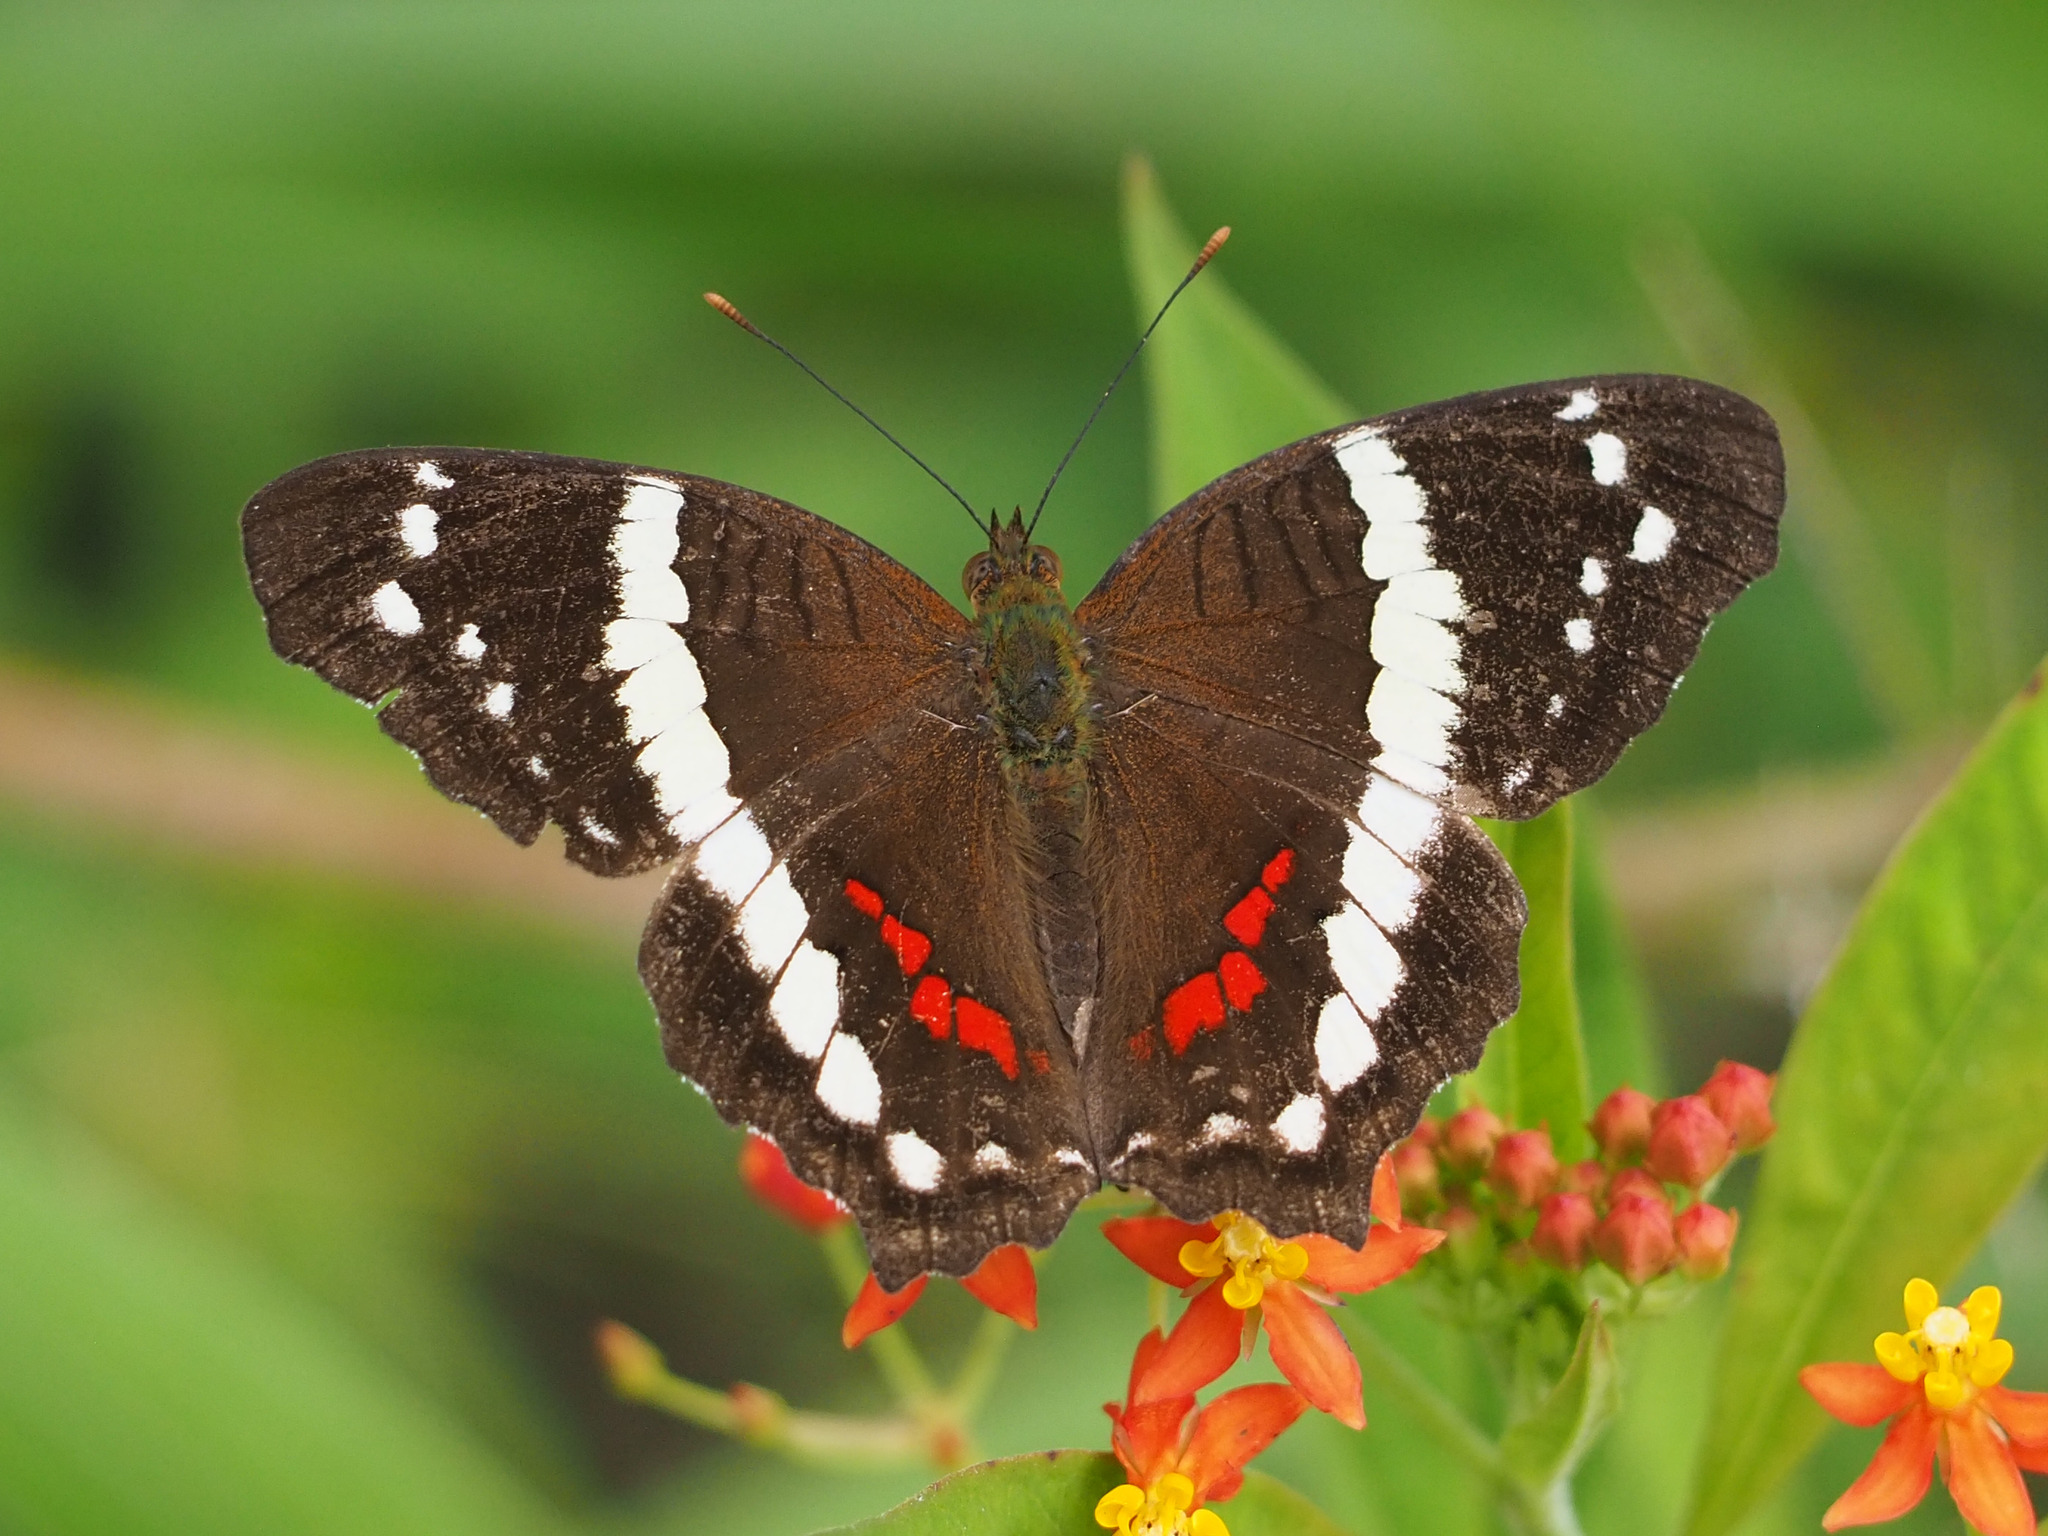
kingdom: Animalia
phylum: Arthropoda
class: Insecta
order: Lepidoptera
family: Nymphalidae
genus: Anartia
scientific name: Anartia fatima
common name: Banded peacock
